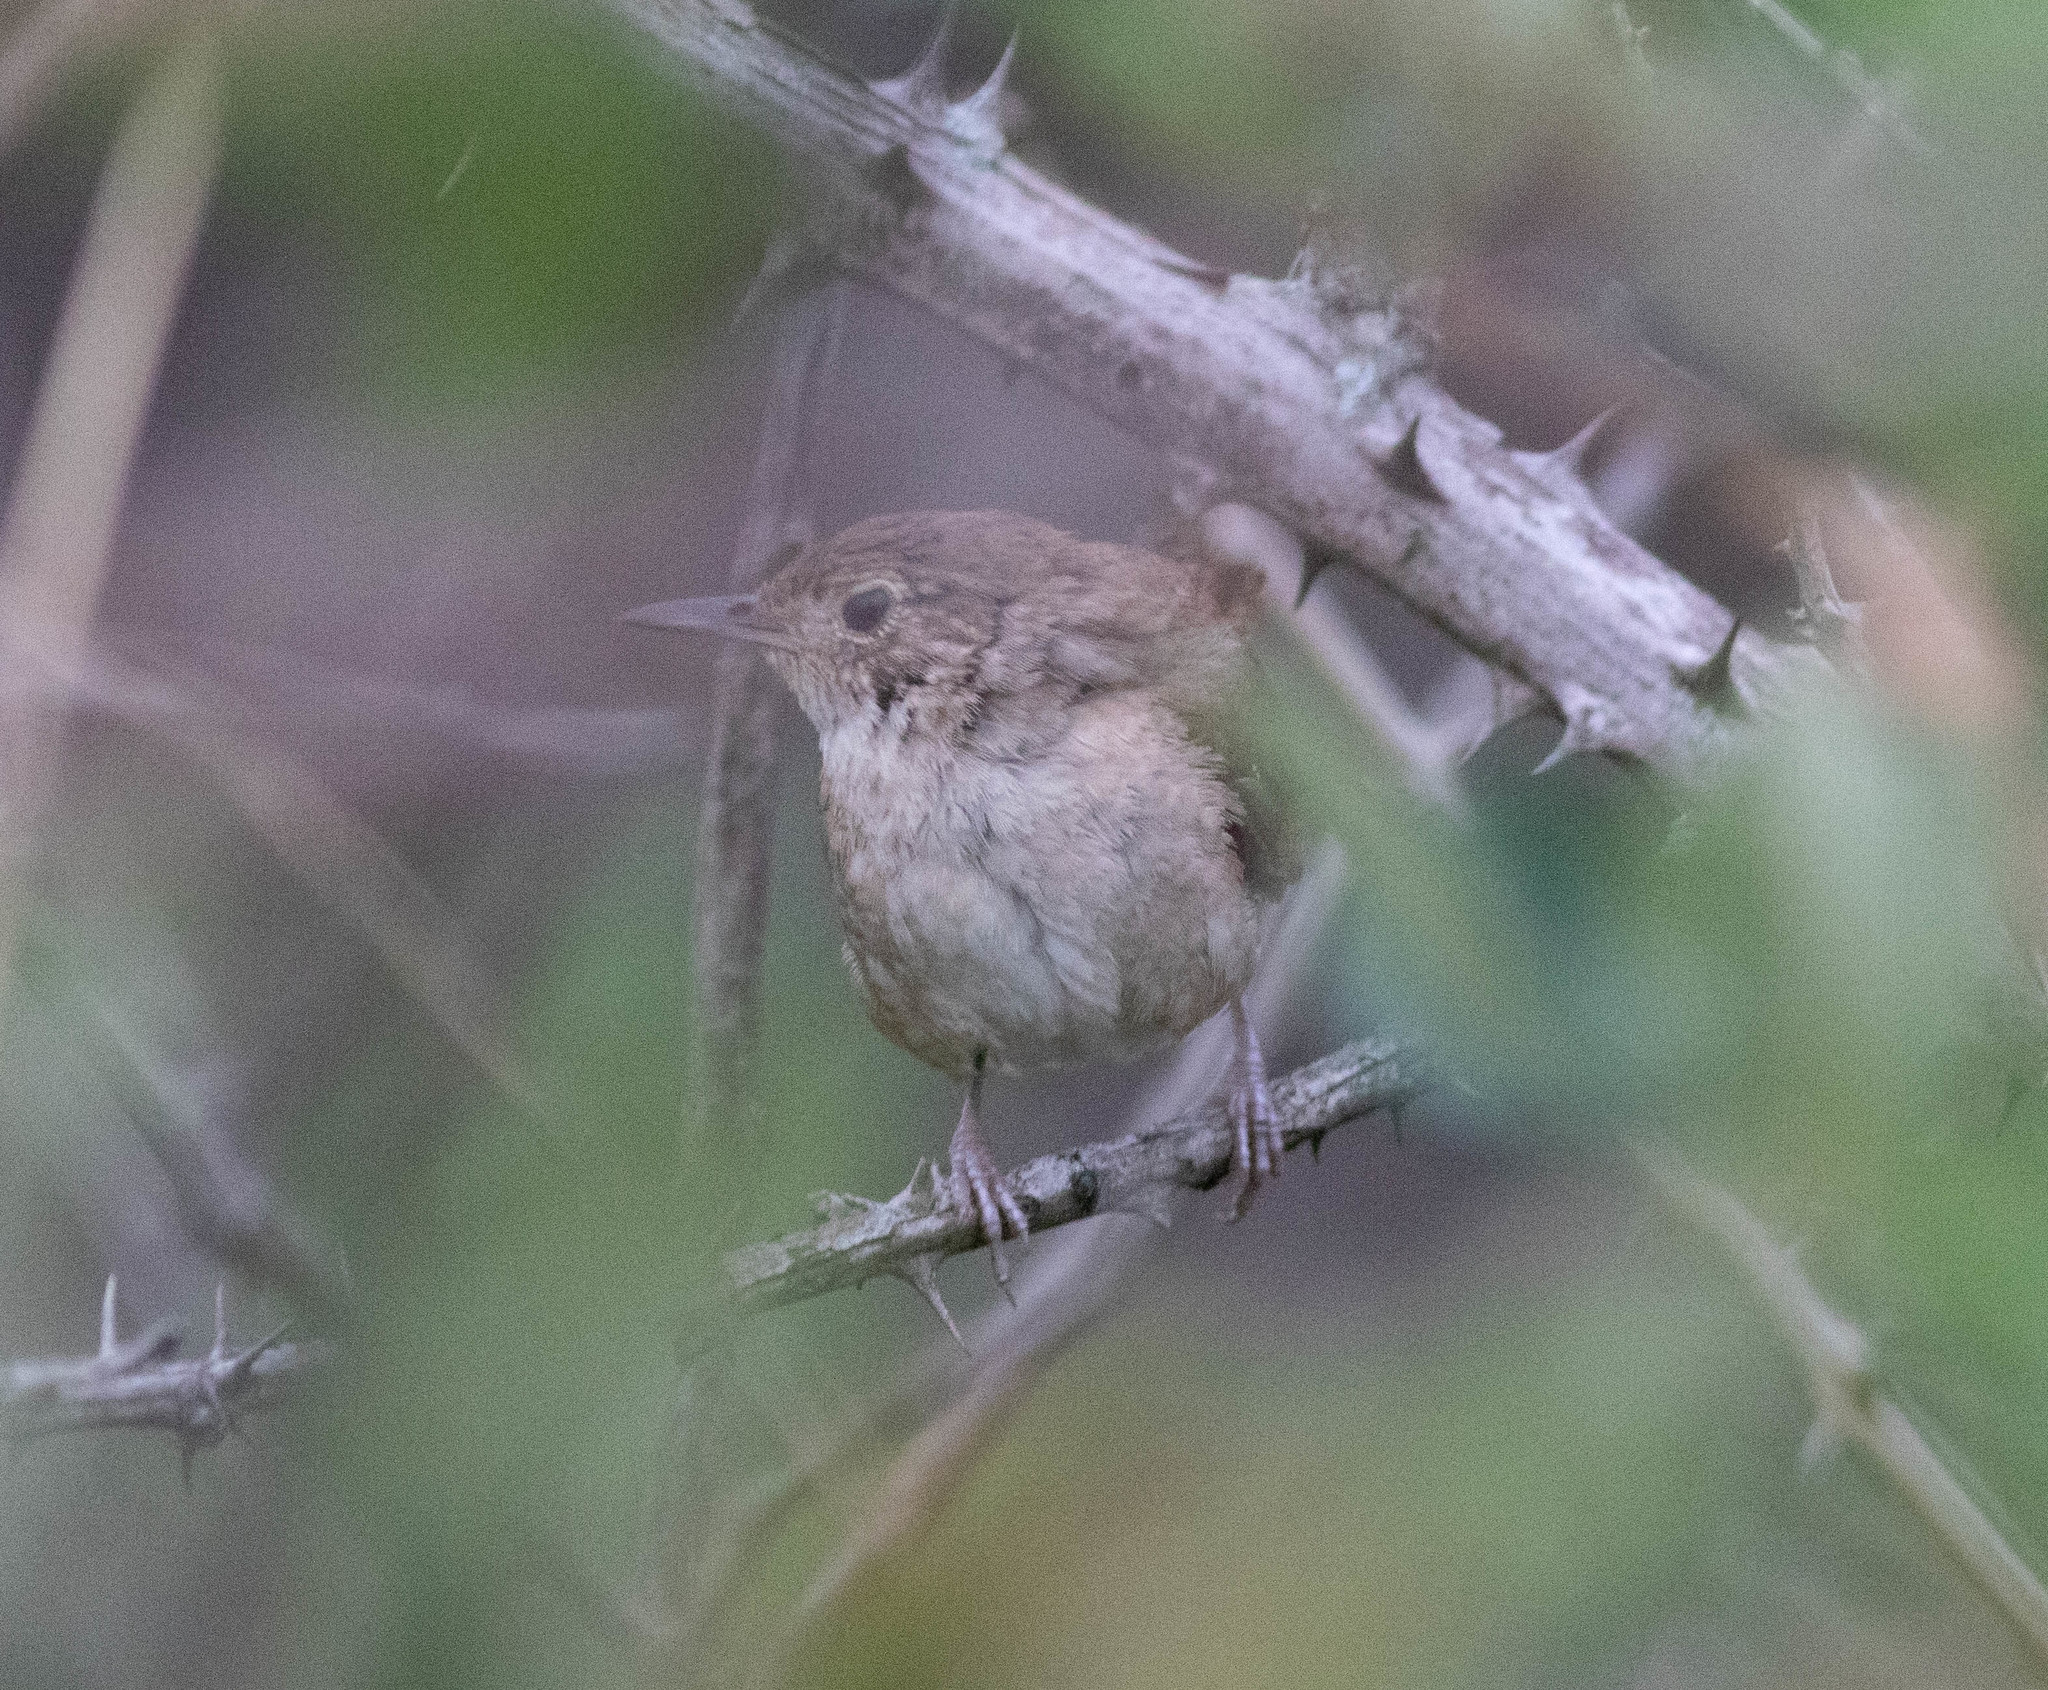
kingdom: Animalia
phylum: Chordata
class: Aves
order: Passeriformes
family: Troglodytidae
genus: Troglodytes
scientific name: Troglodytes aedon
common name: House wren
